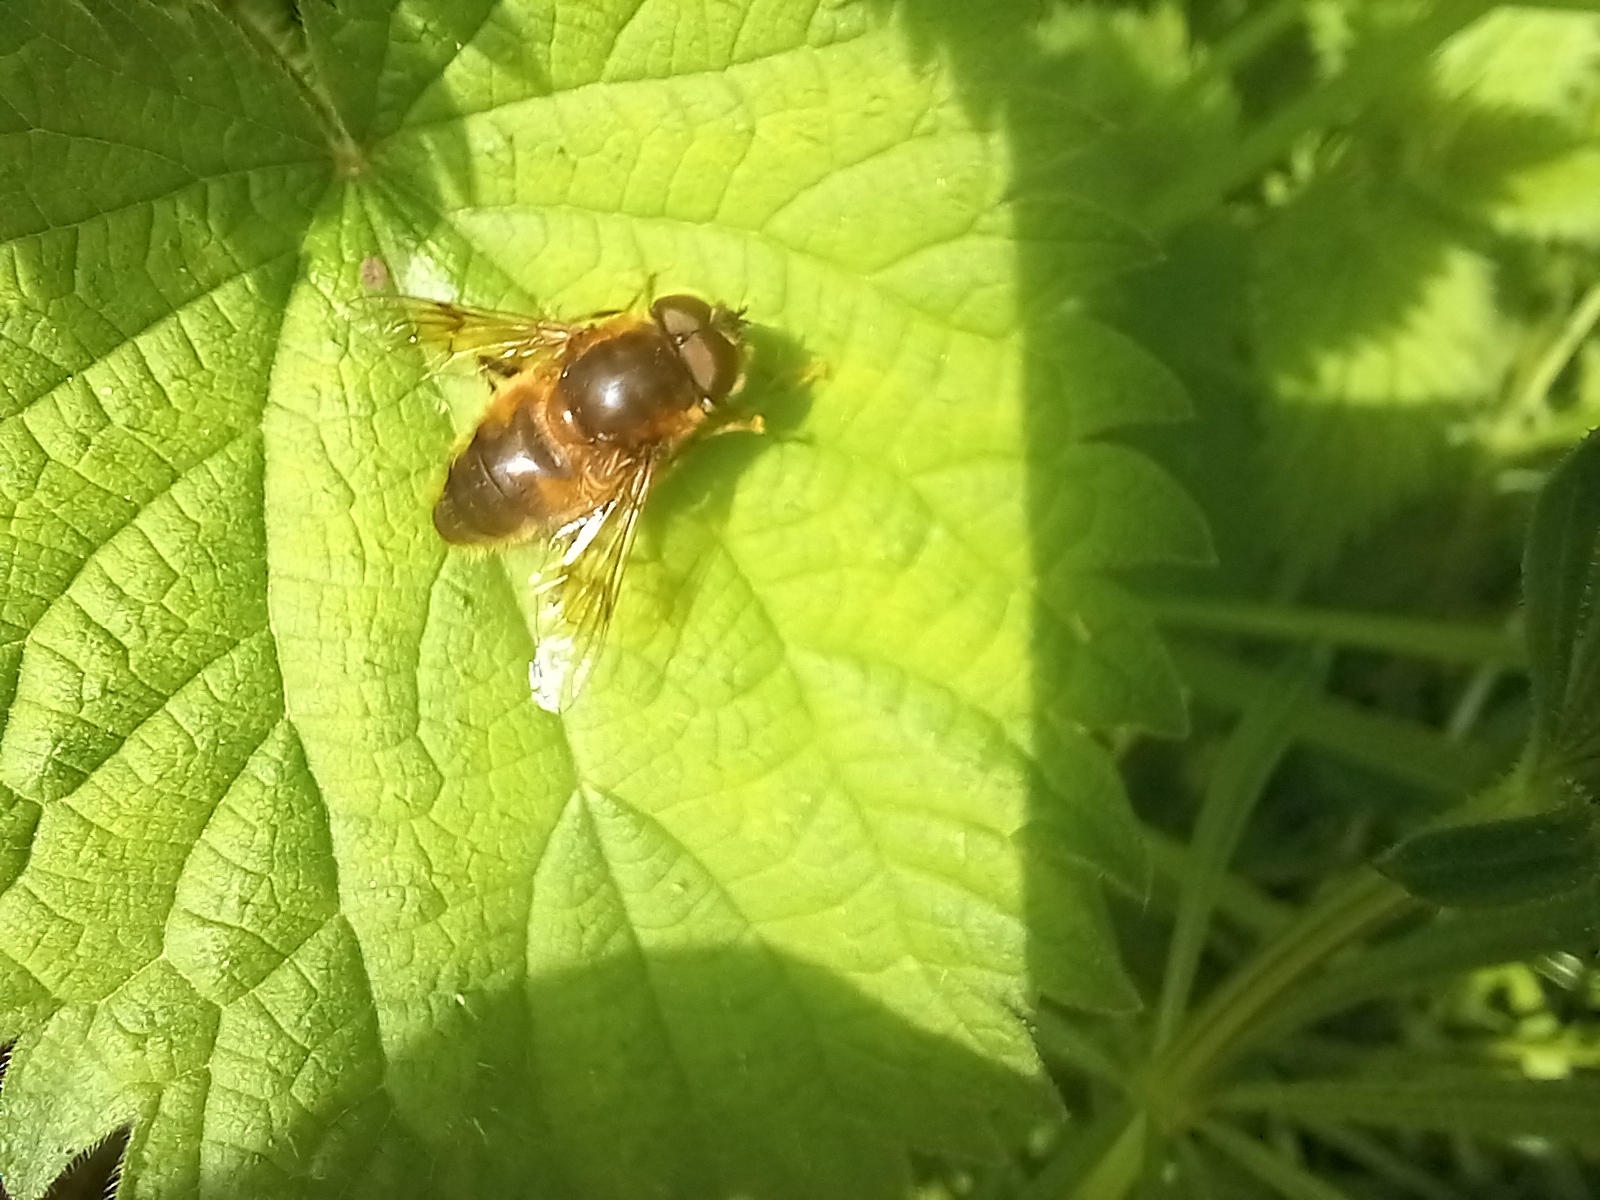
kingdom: Animalia
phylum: Arthropoda
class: Insecta
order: Diptera
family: Syrphidae
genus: Eristalis
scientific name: Eristalis pertinax
